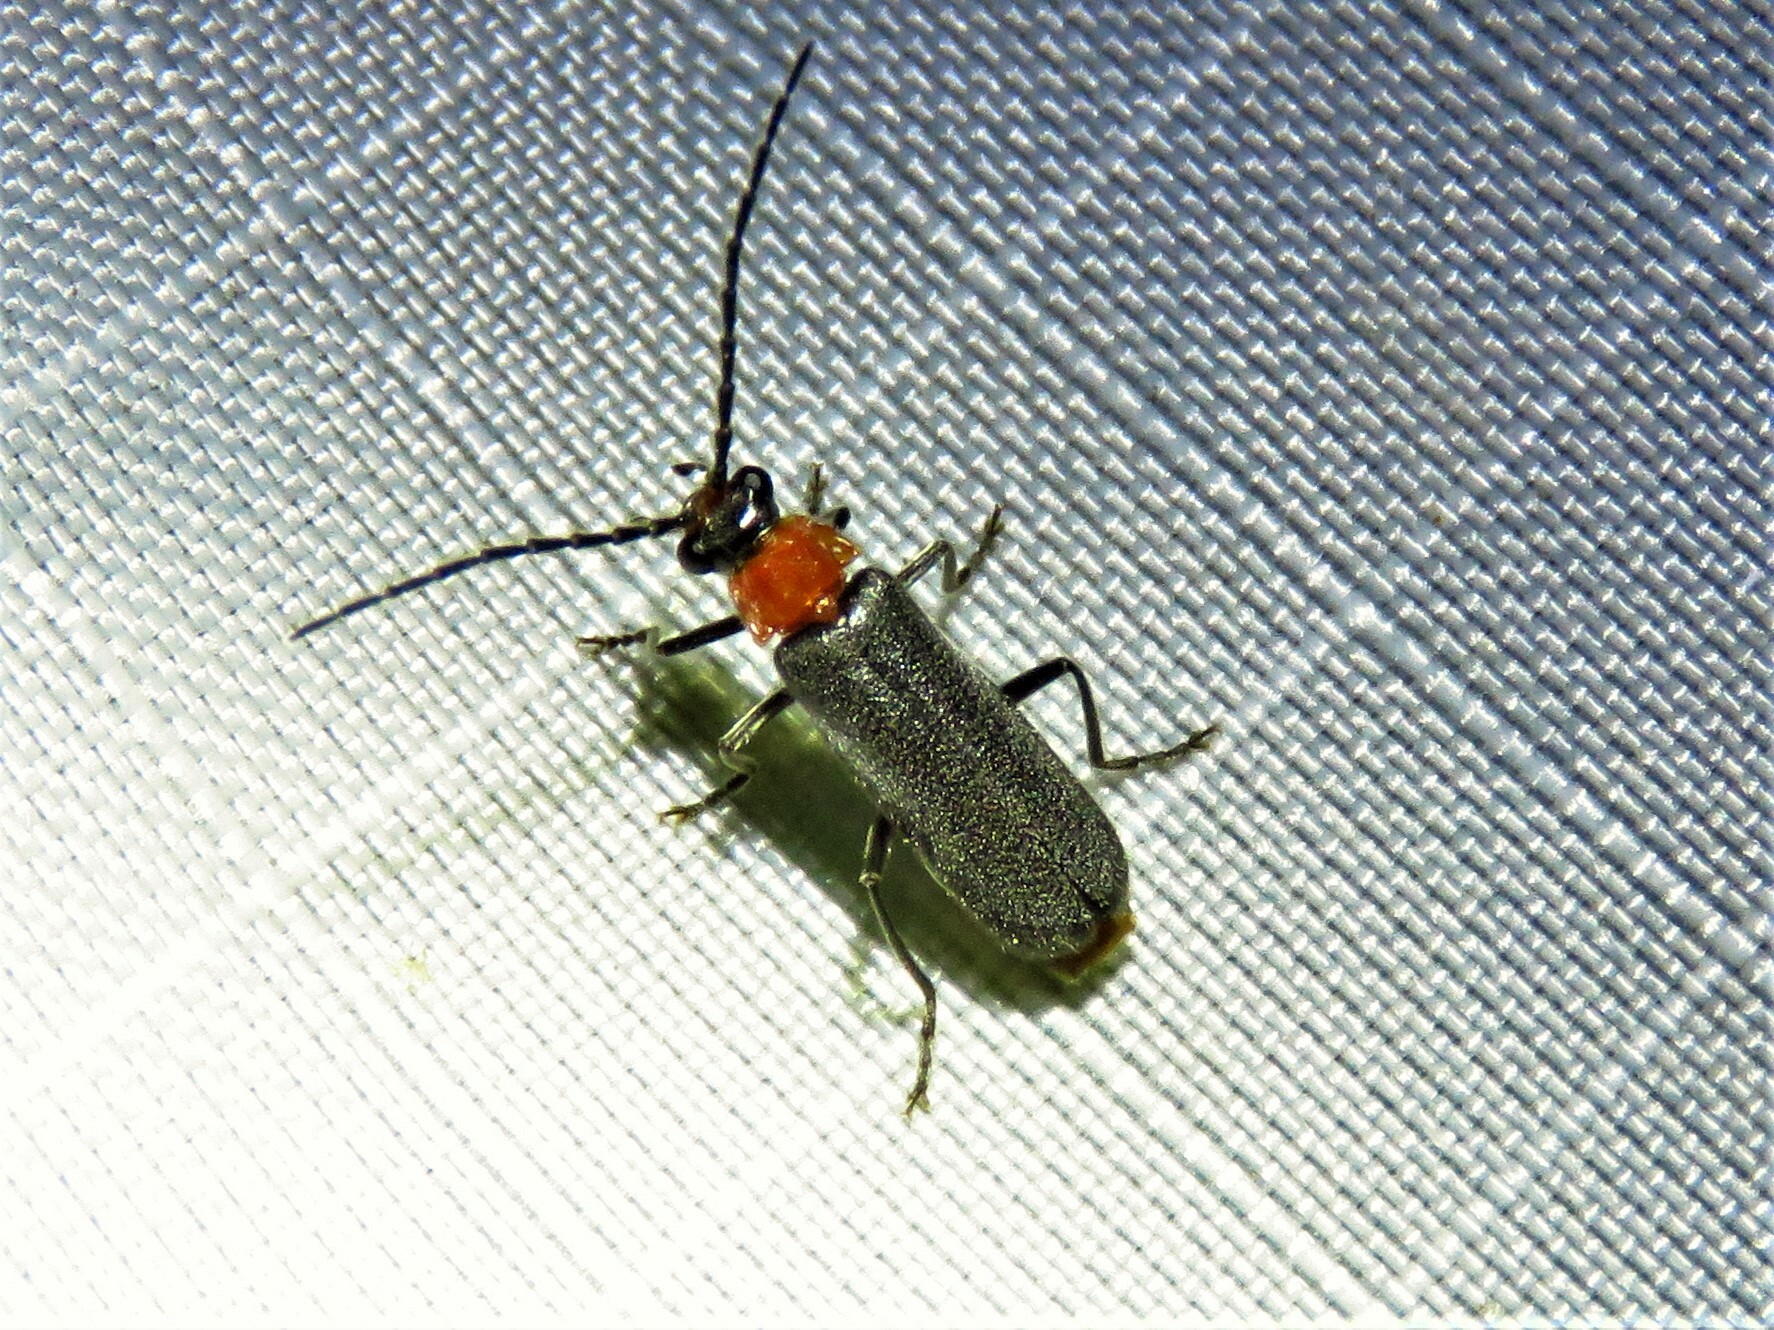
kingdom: Animalia
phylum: Arthropoda
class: Insecta
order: Coleoptera
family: Cantharidae
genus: Ditemnus
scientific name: Ditemnus
